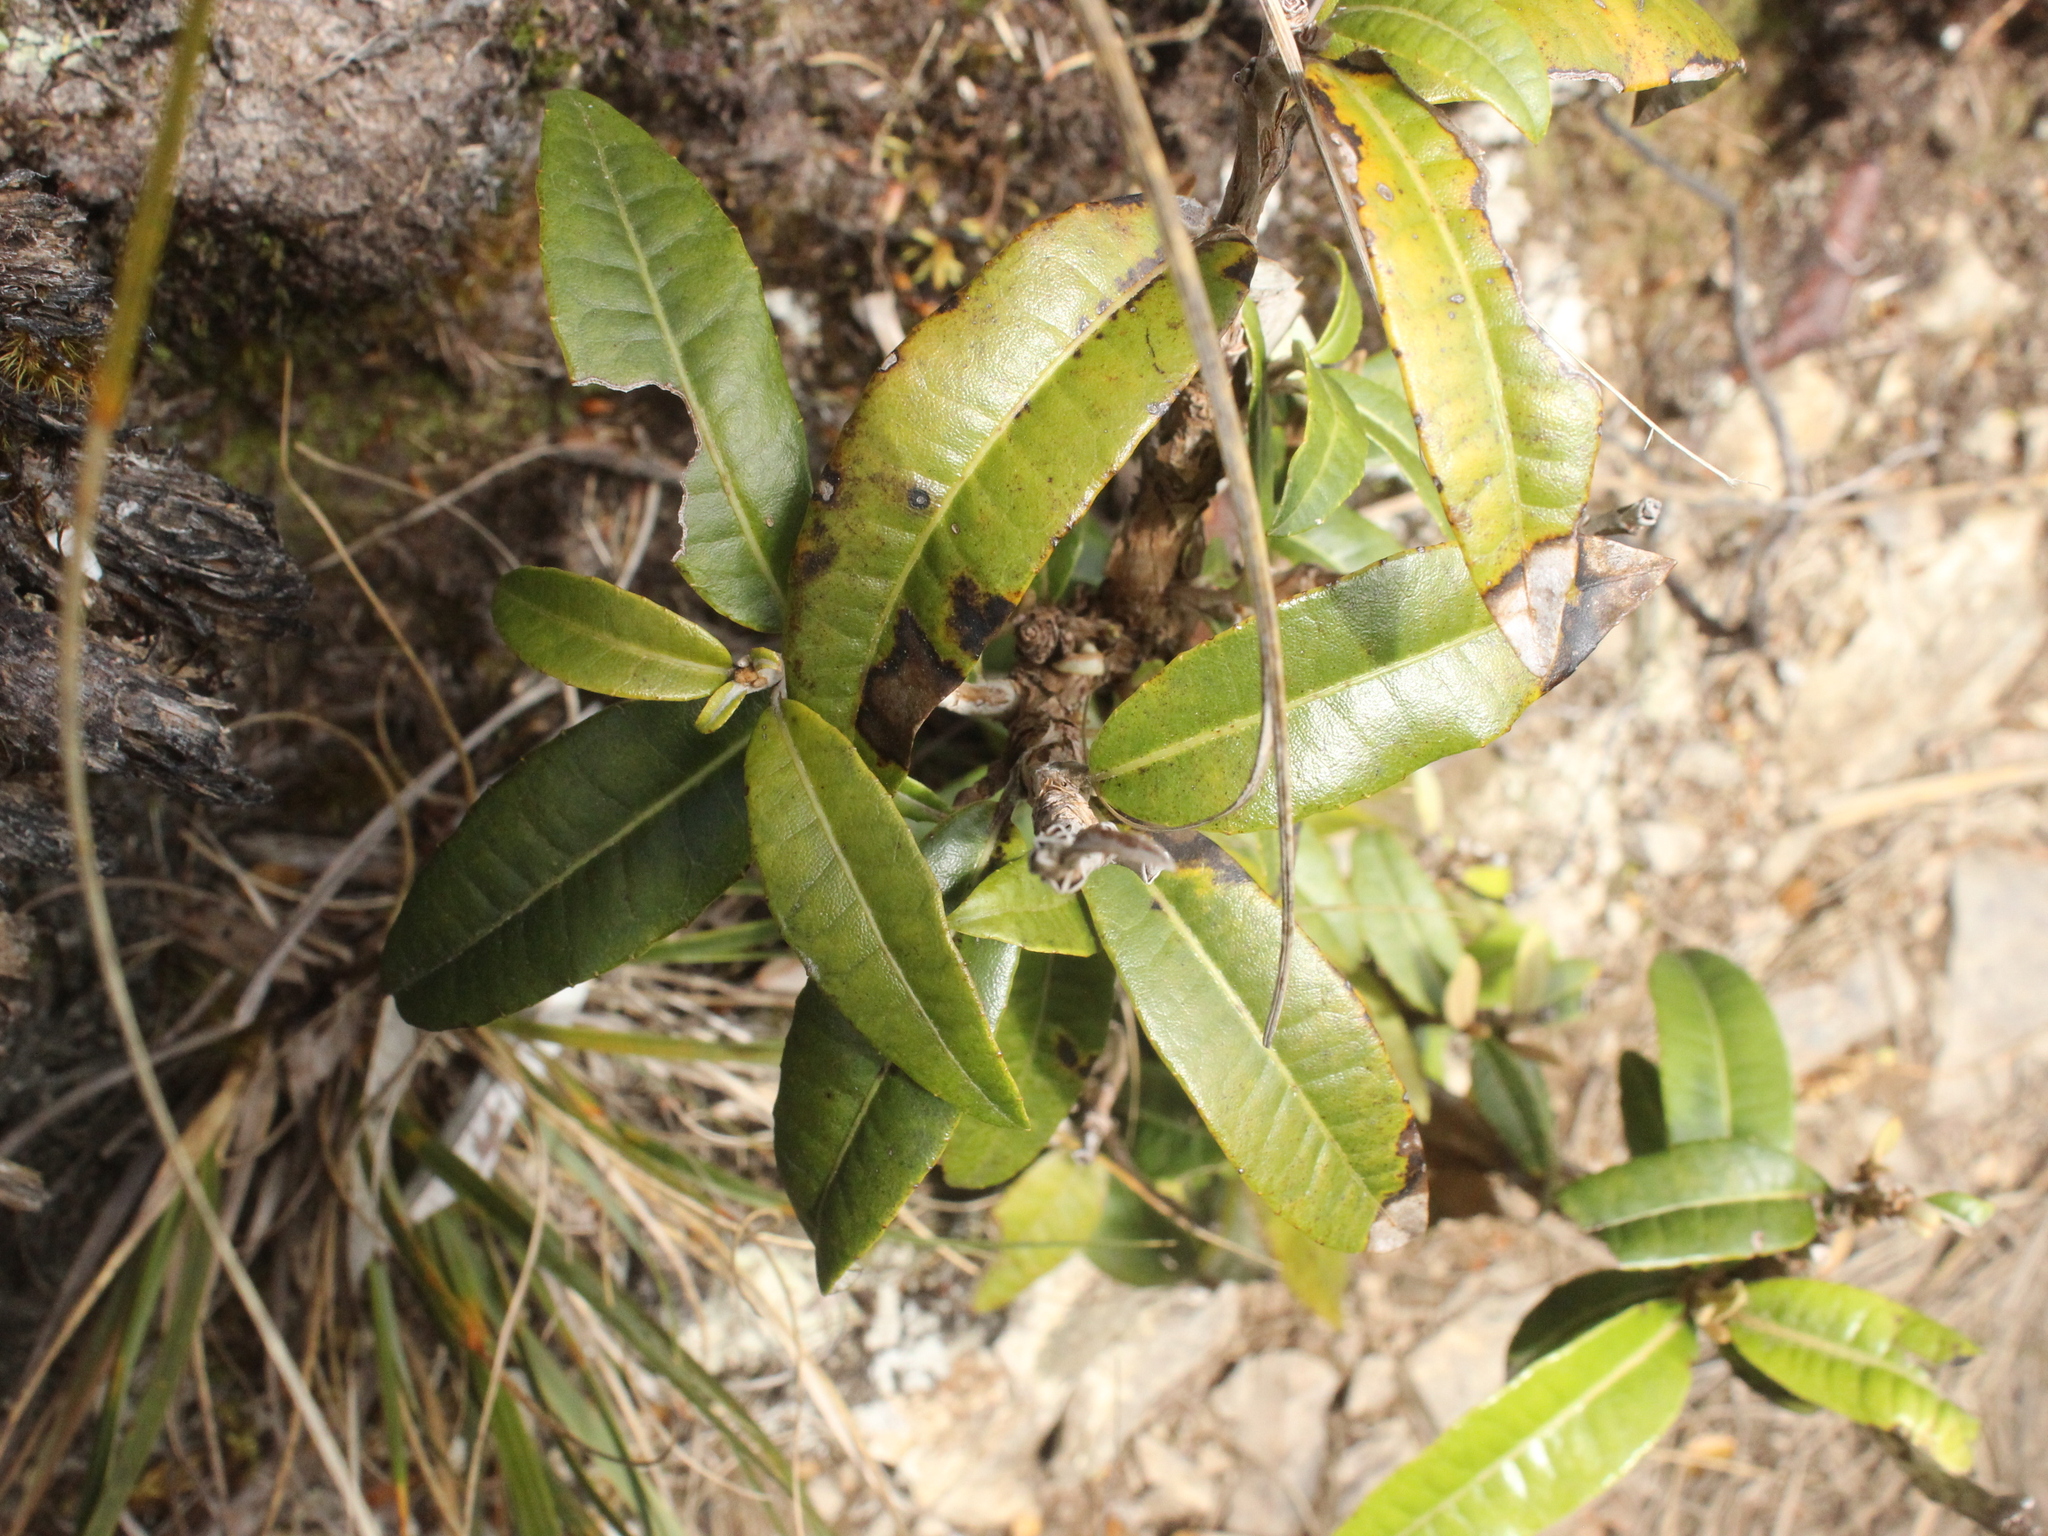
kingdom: Plantae
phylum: Tracheophyta
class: Magnoliopsida
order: Asterales
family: Asteraceae
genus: Olearia
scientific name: Olearia
